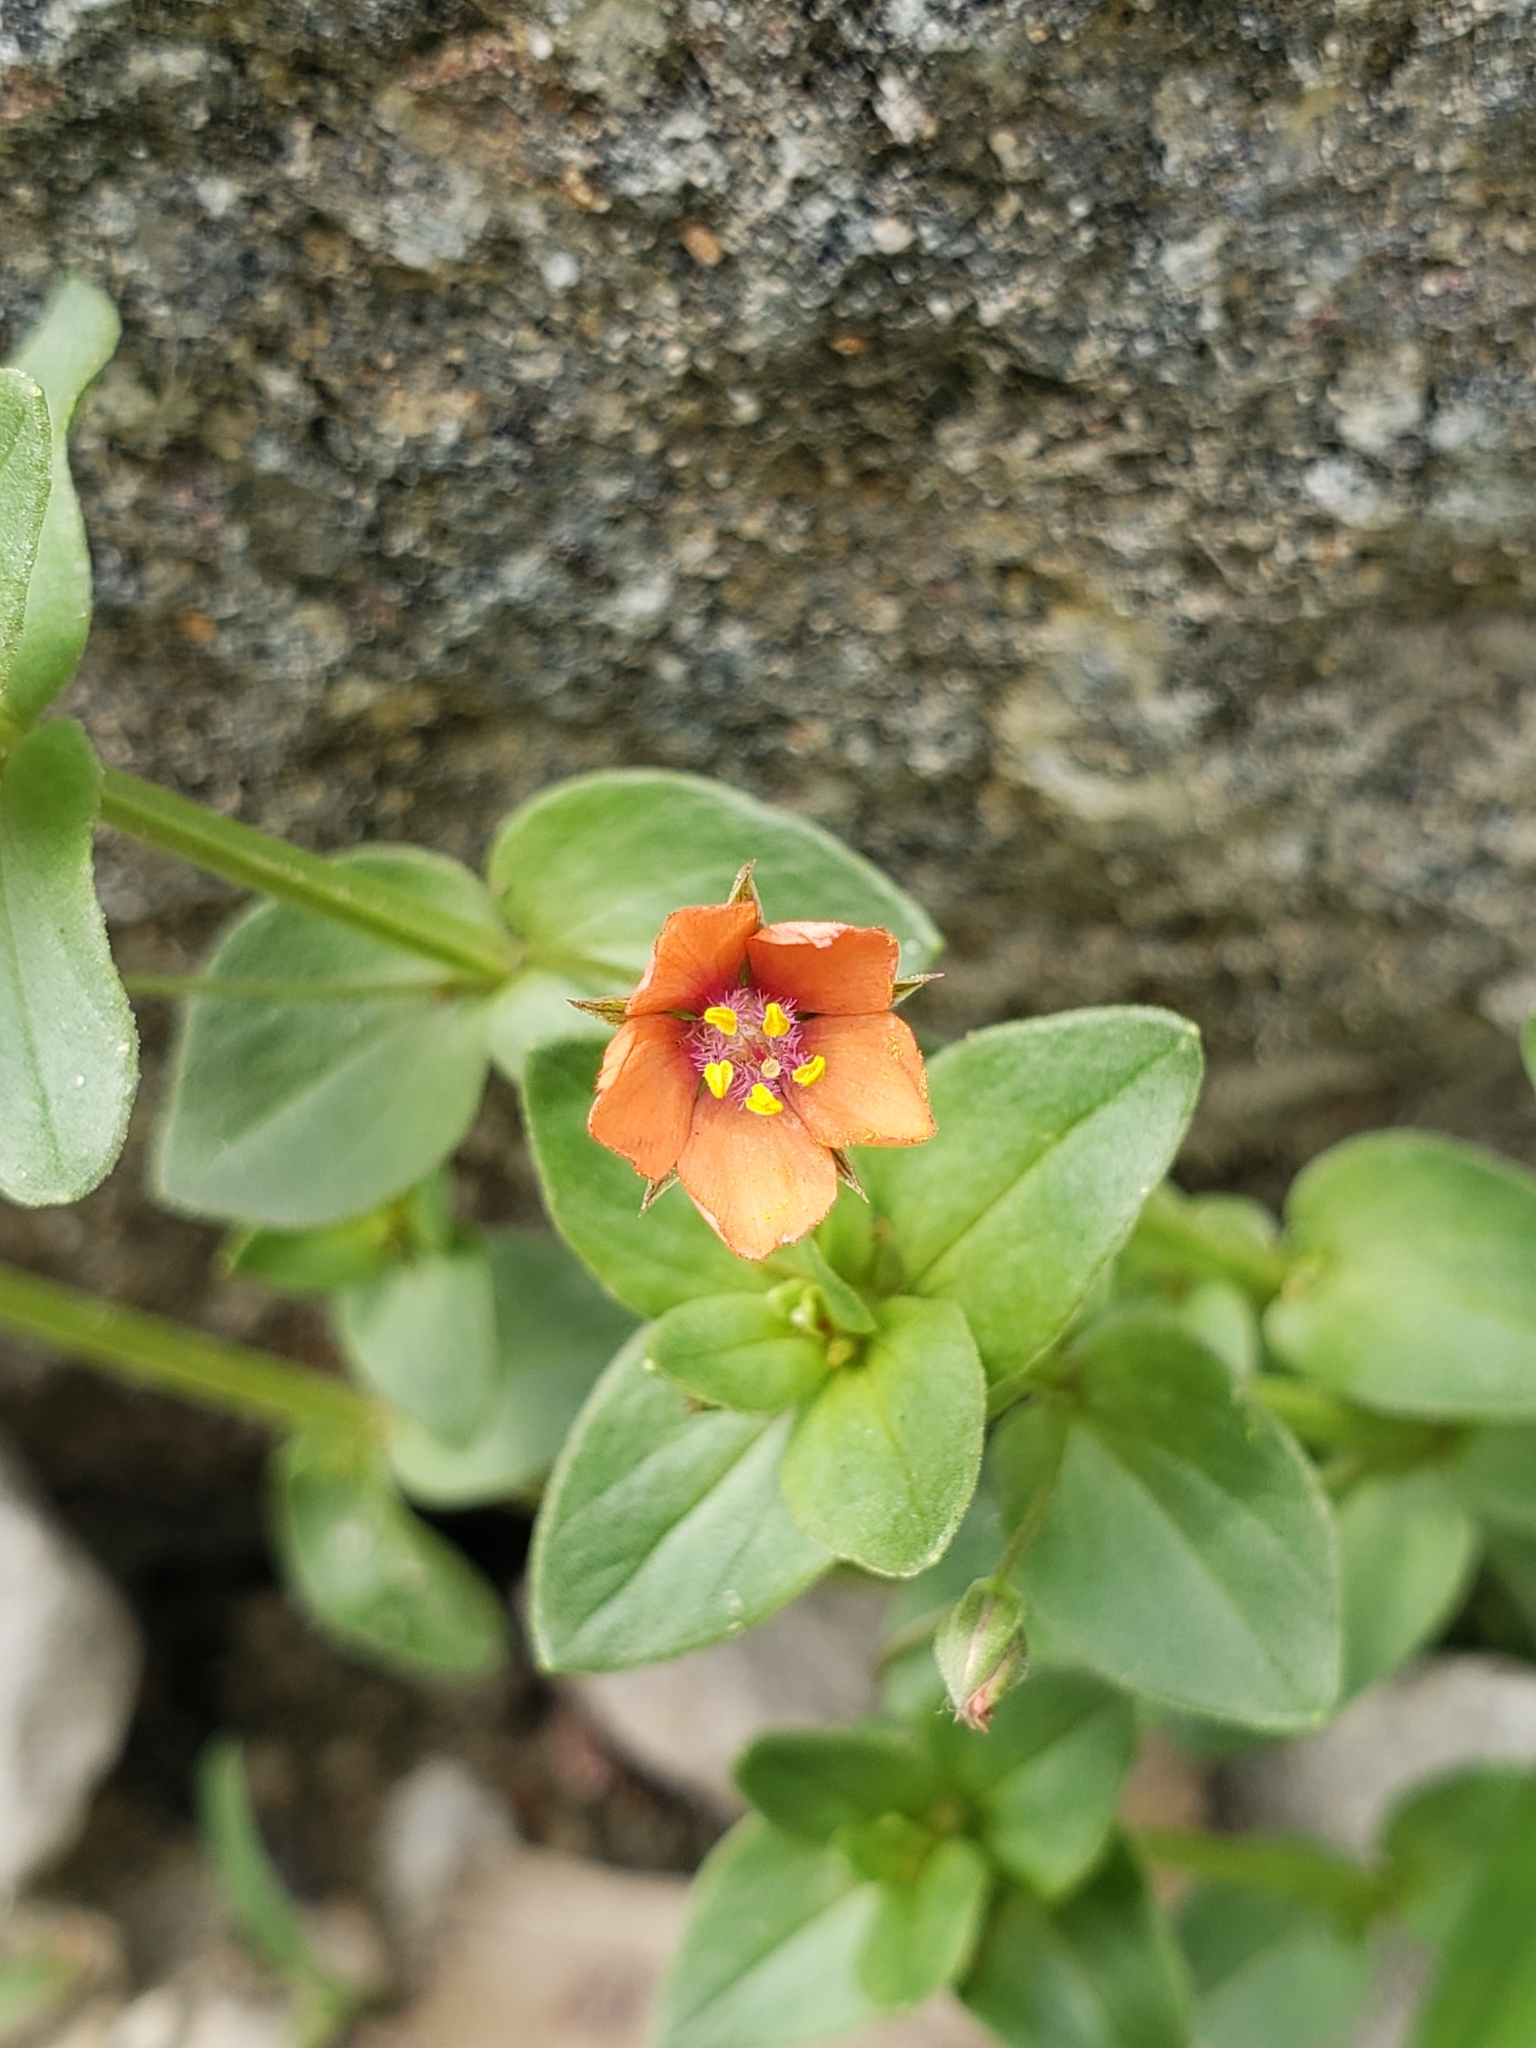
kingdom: Plantae
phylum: Tracheophyta
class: Magnoliopsida
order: Ericales
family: Primulaceae
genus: Lysimachia
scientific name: Lysimachia arvensis
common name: Scarlet pimpernel
